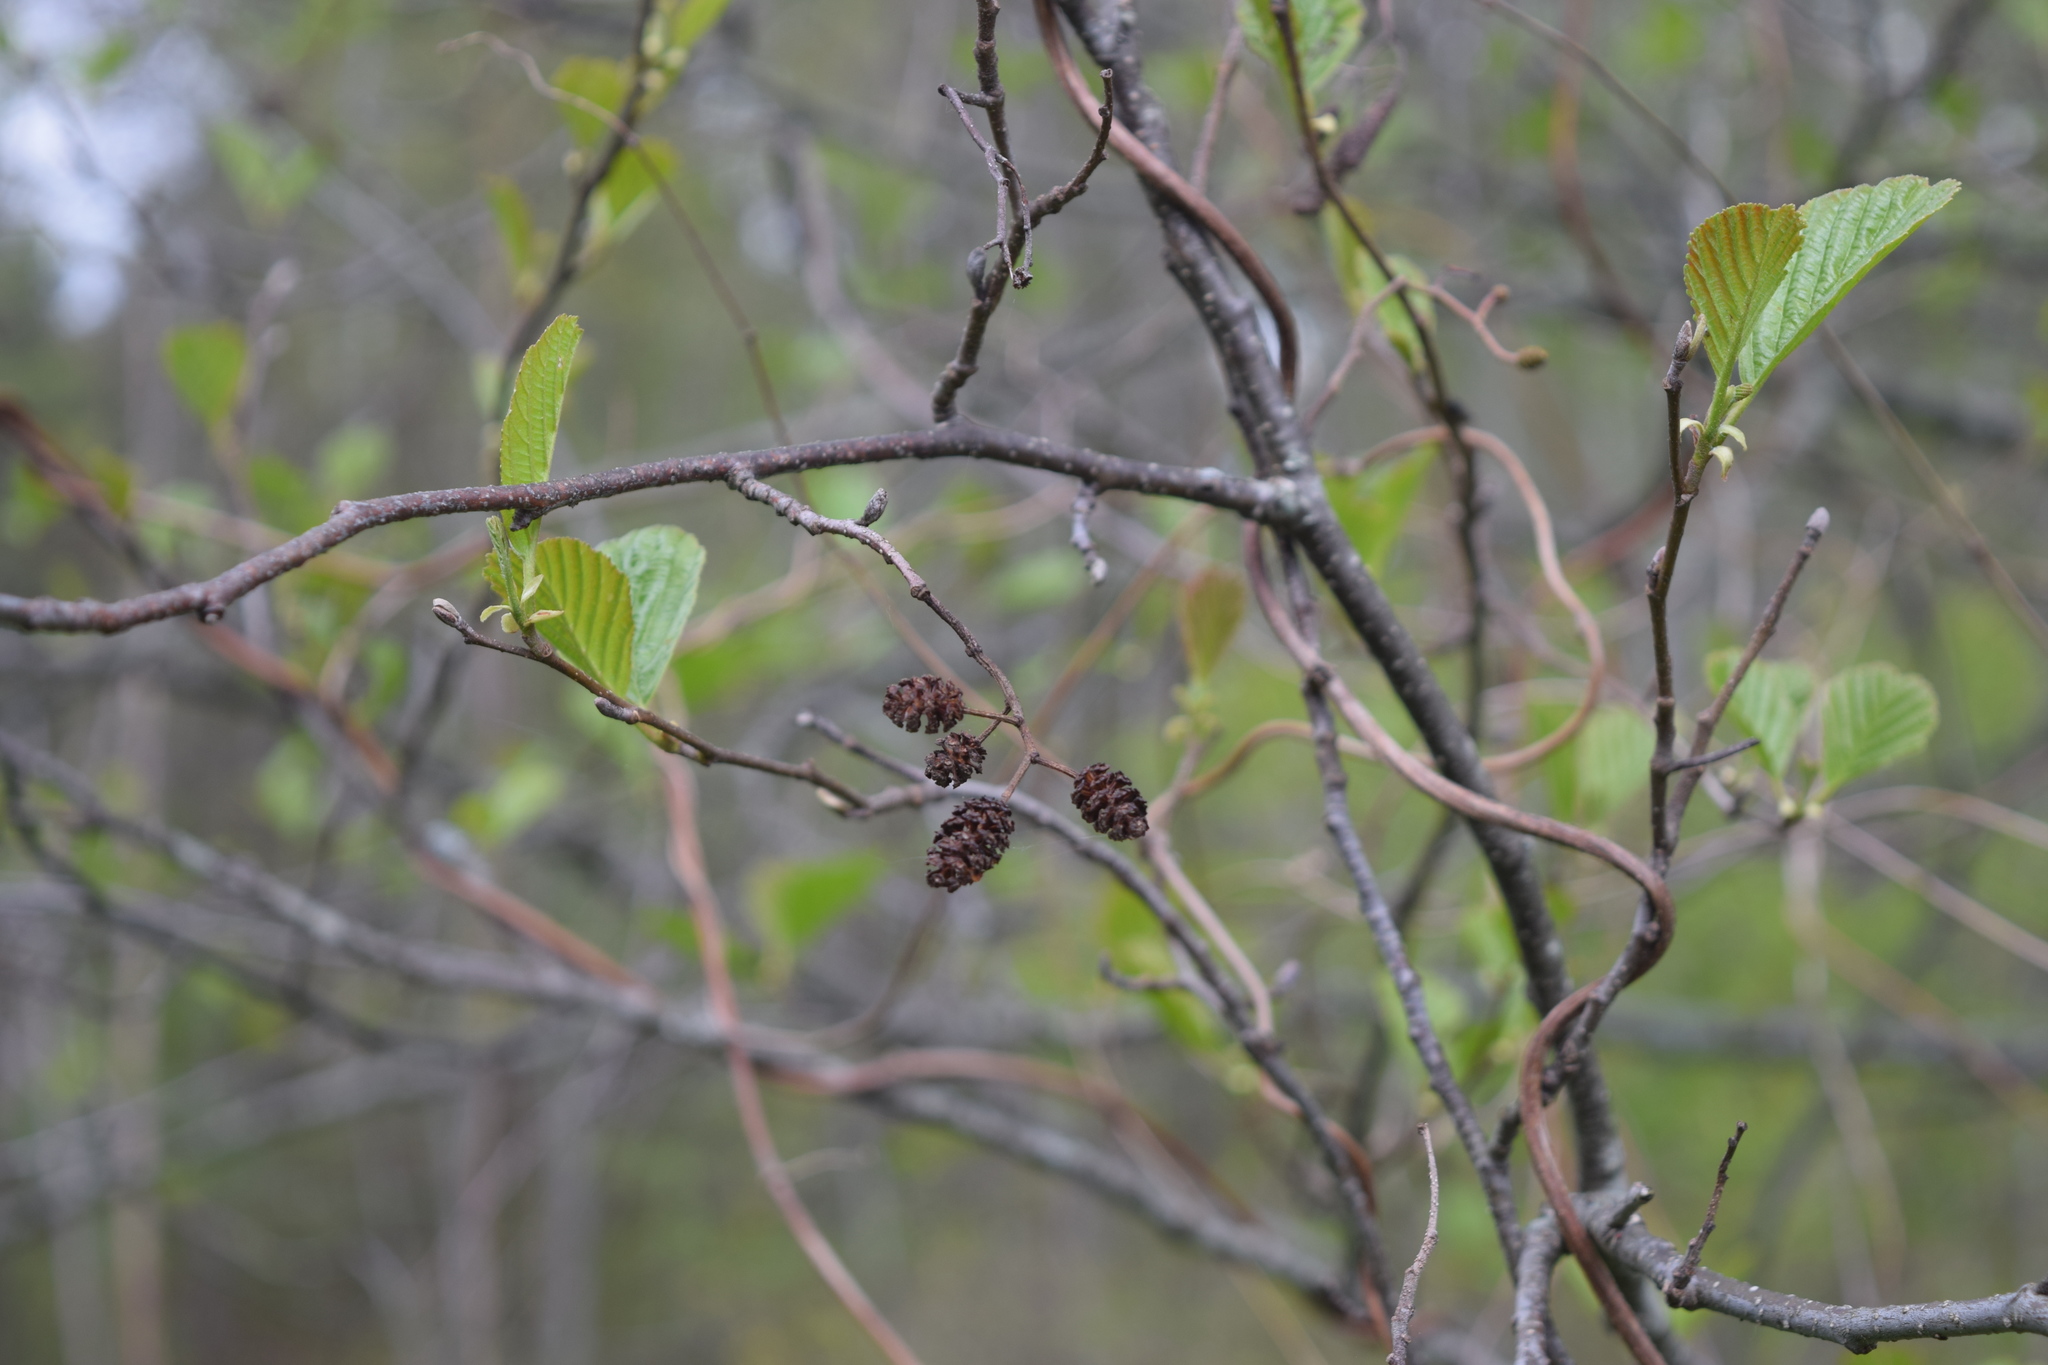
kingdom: Plantae
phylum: Tracheophyta
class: Magnoliopsida
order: Fagales
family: Betulaceae
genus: Alnus
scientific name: Alnus glutinosa
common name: Black alder
